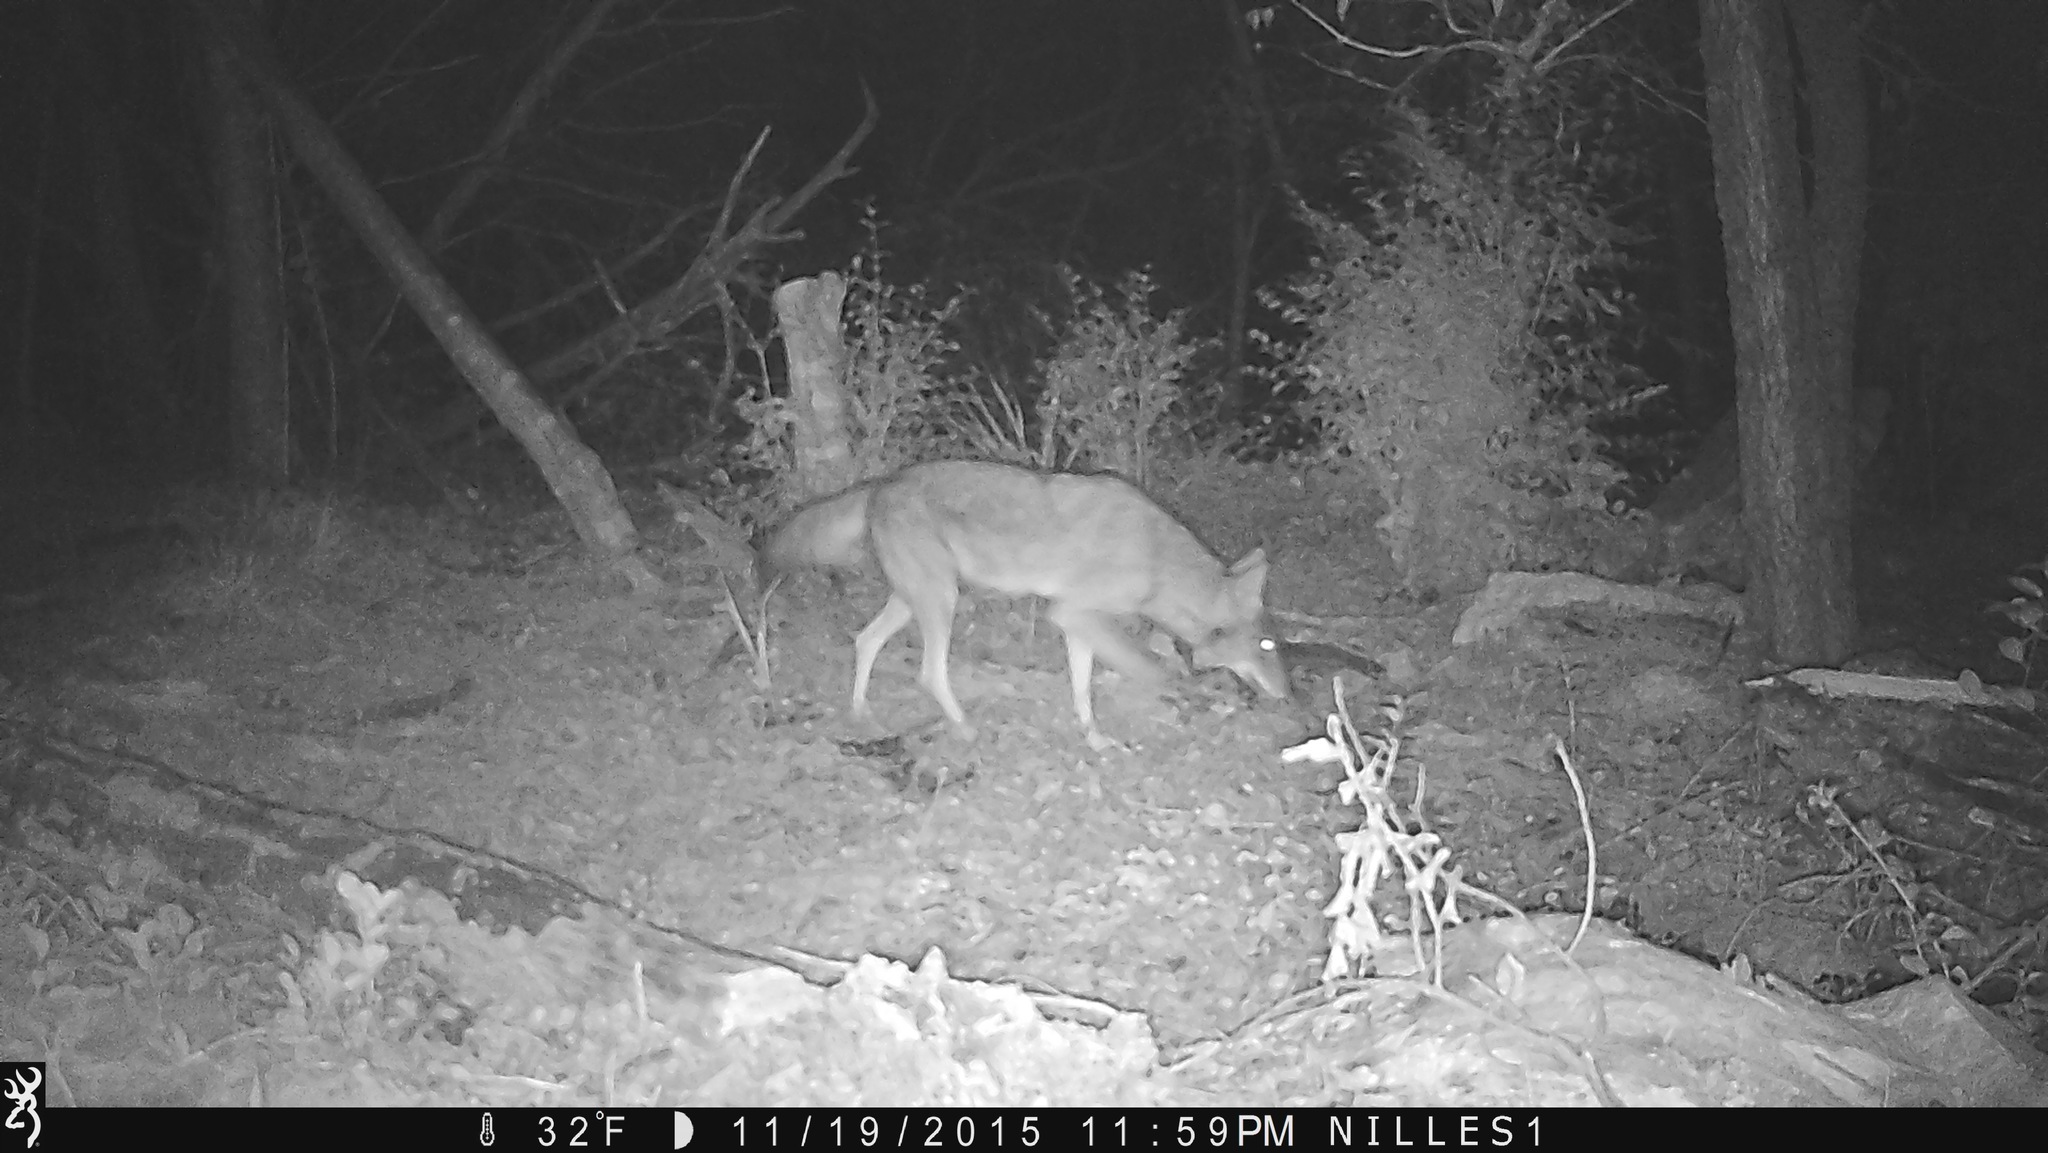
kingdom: Animalia
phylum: Chordata
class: Mammalia
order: Carnivora
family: Canidae
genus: Canis
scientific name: Canis latrans
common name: Coyote
